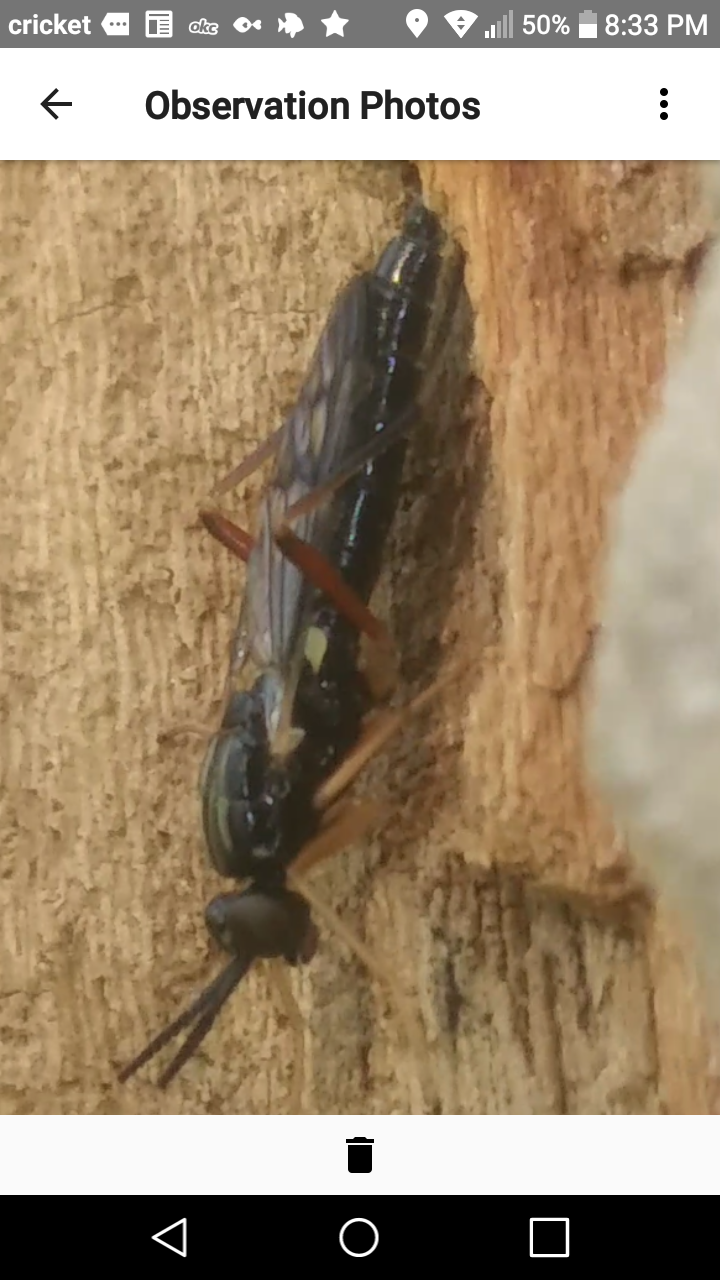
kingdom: Animalia
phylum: Arthropoda
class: Insecta
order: Diptera
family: Xylophagidae
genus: Xylophagus
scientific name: Xylophagus reflectens
